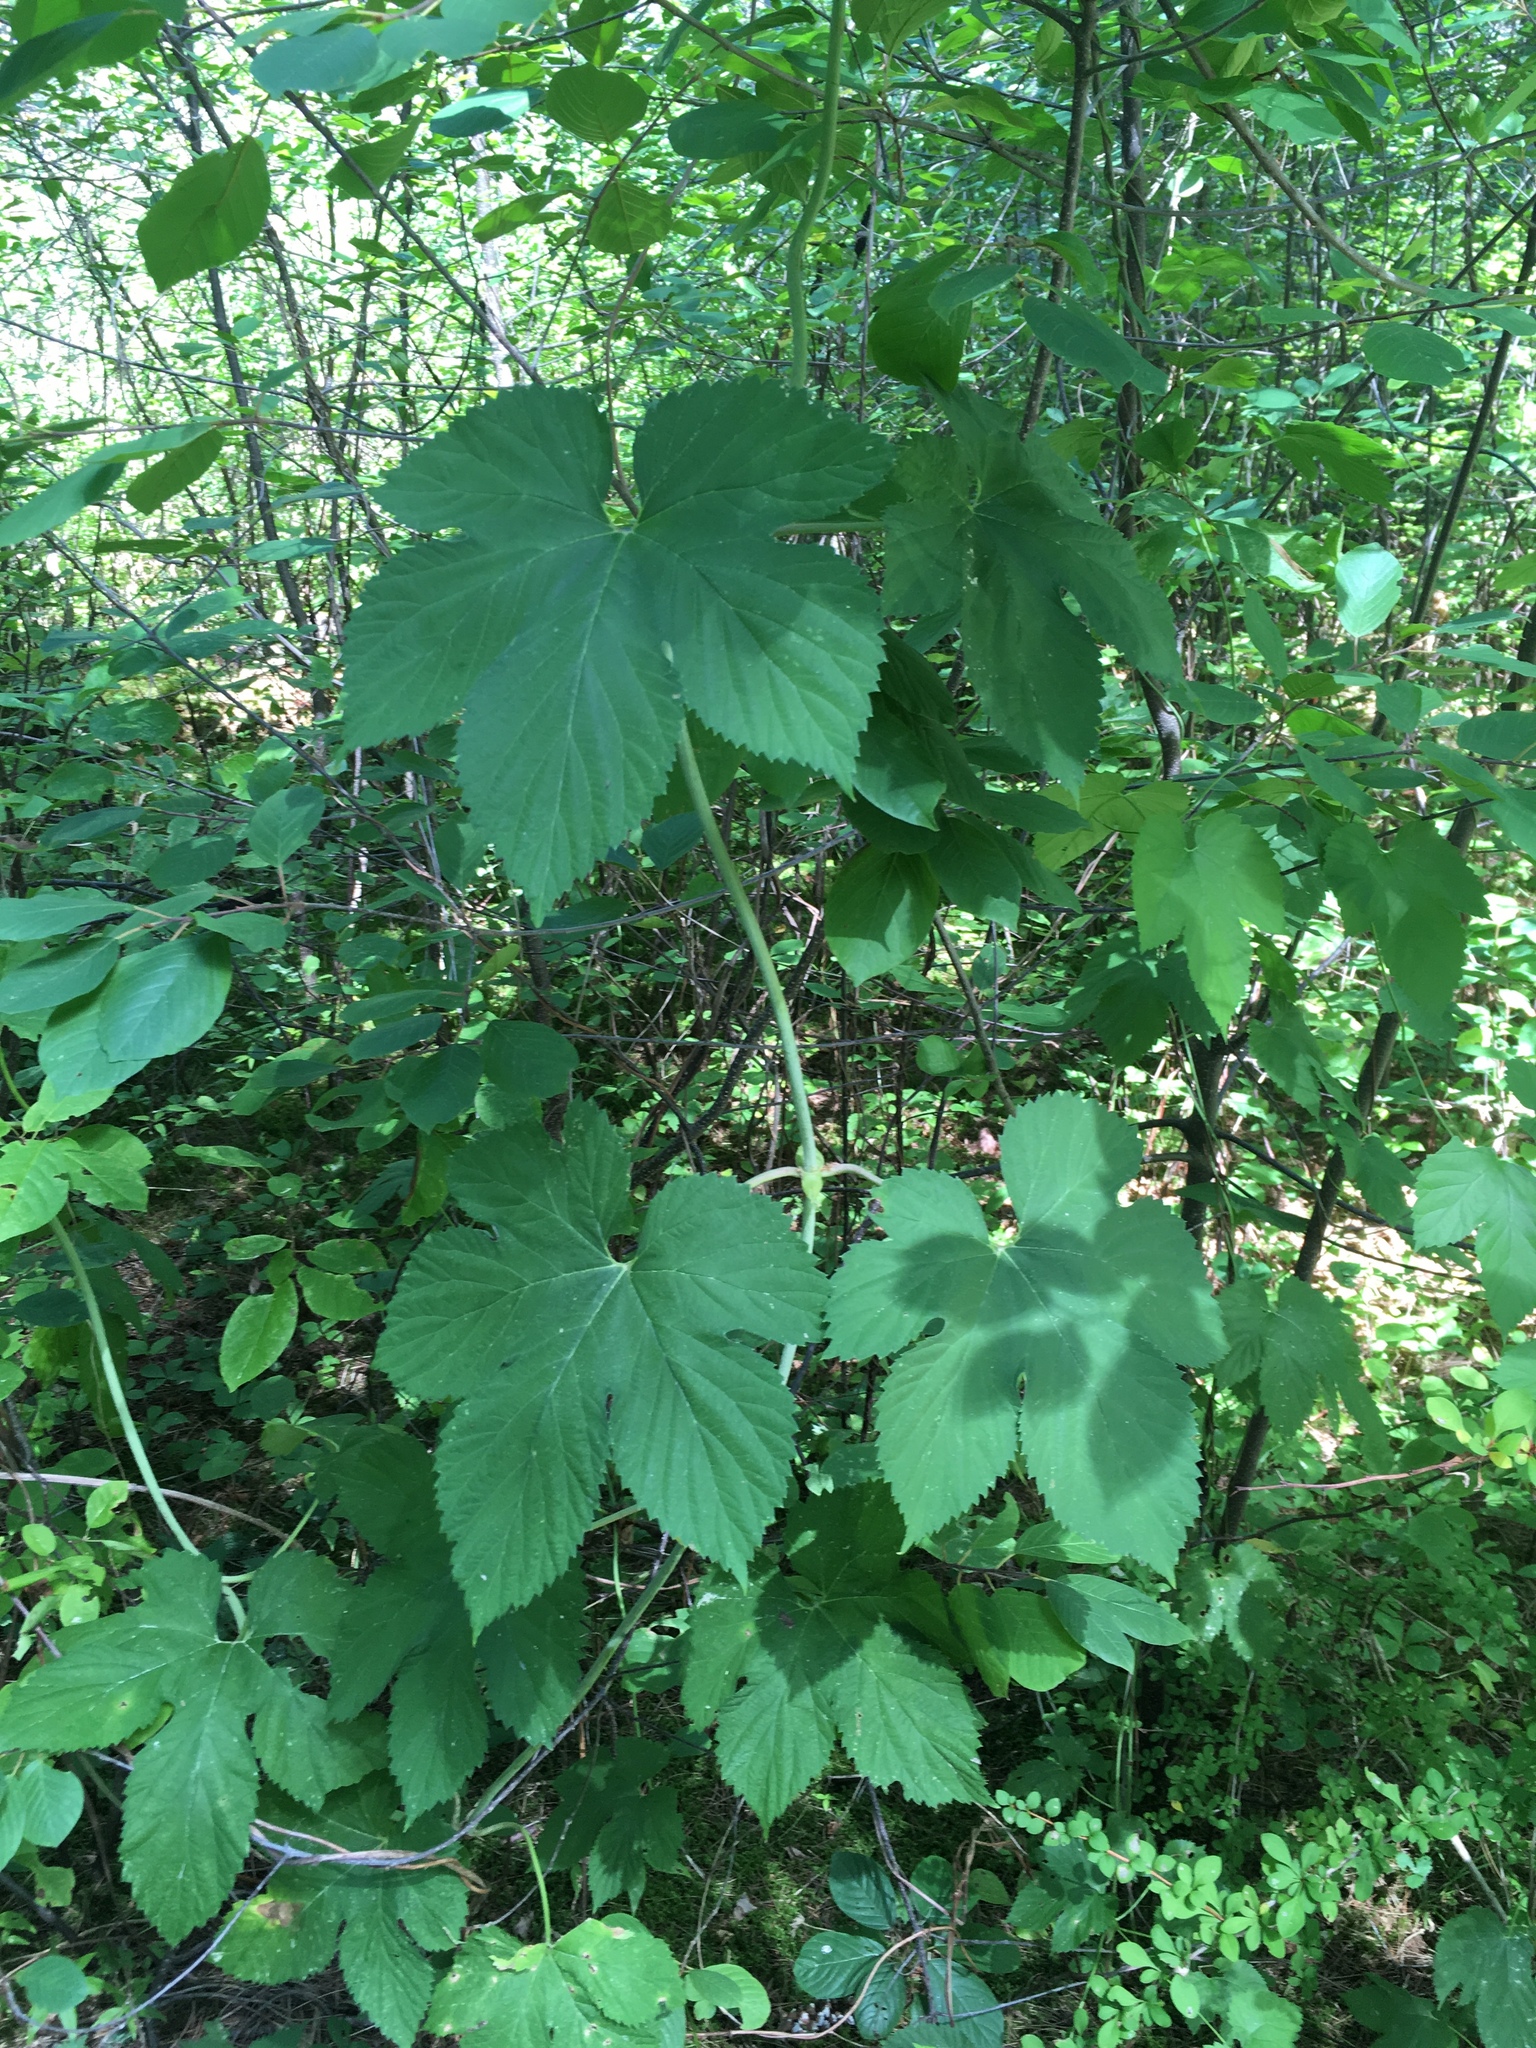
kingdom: Plantae
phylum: Tracheophyta
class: Magnoliopsida
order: Rosales
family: Cannabaceae
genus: Humulus
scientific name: Humulus lupulus
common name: Hop
